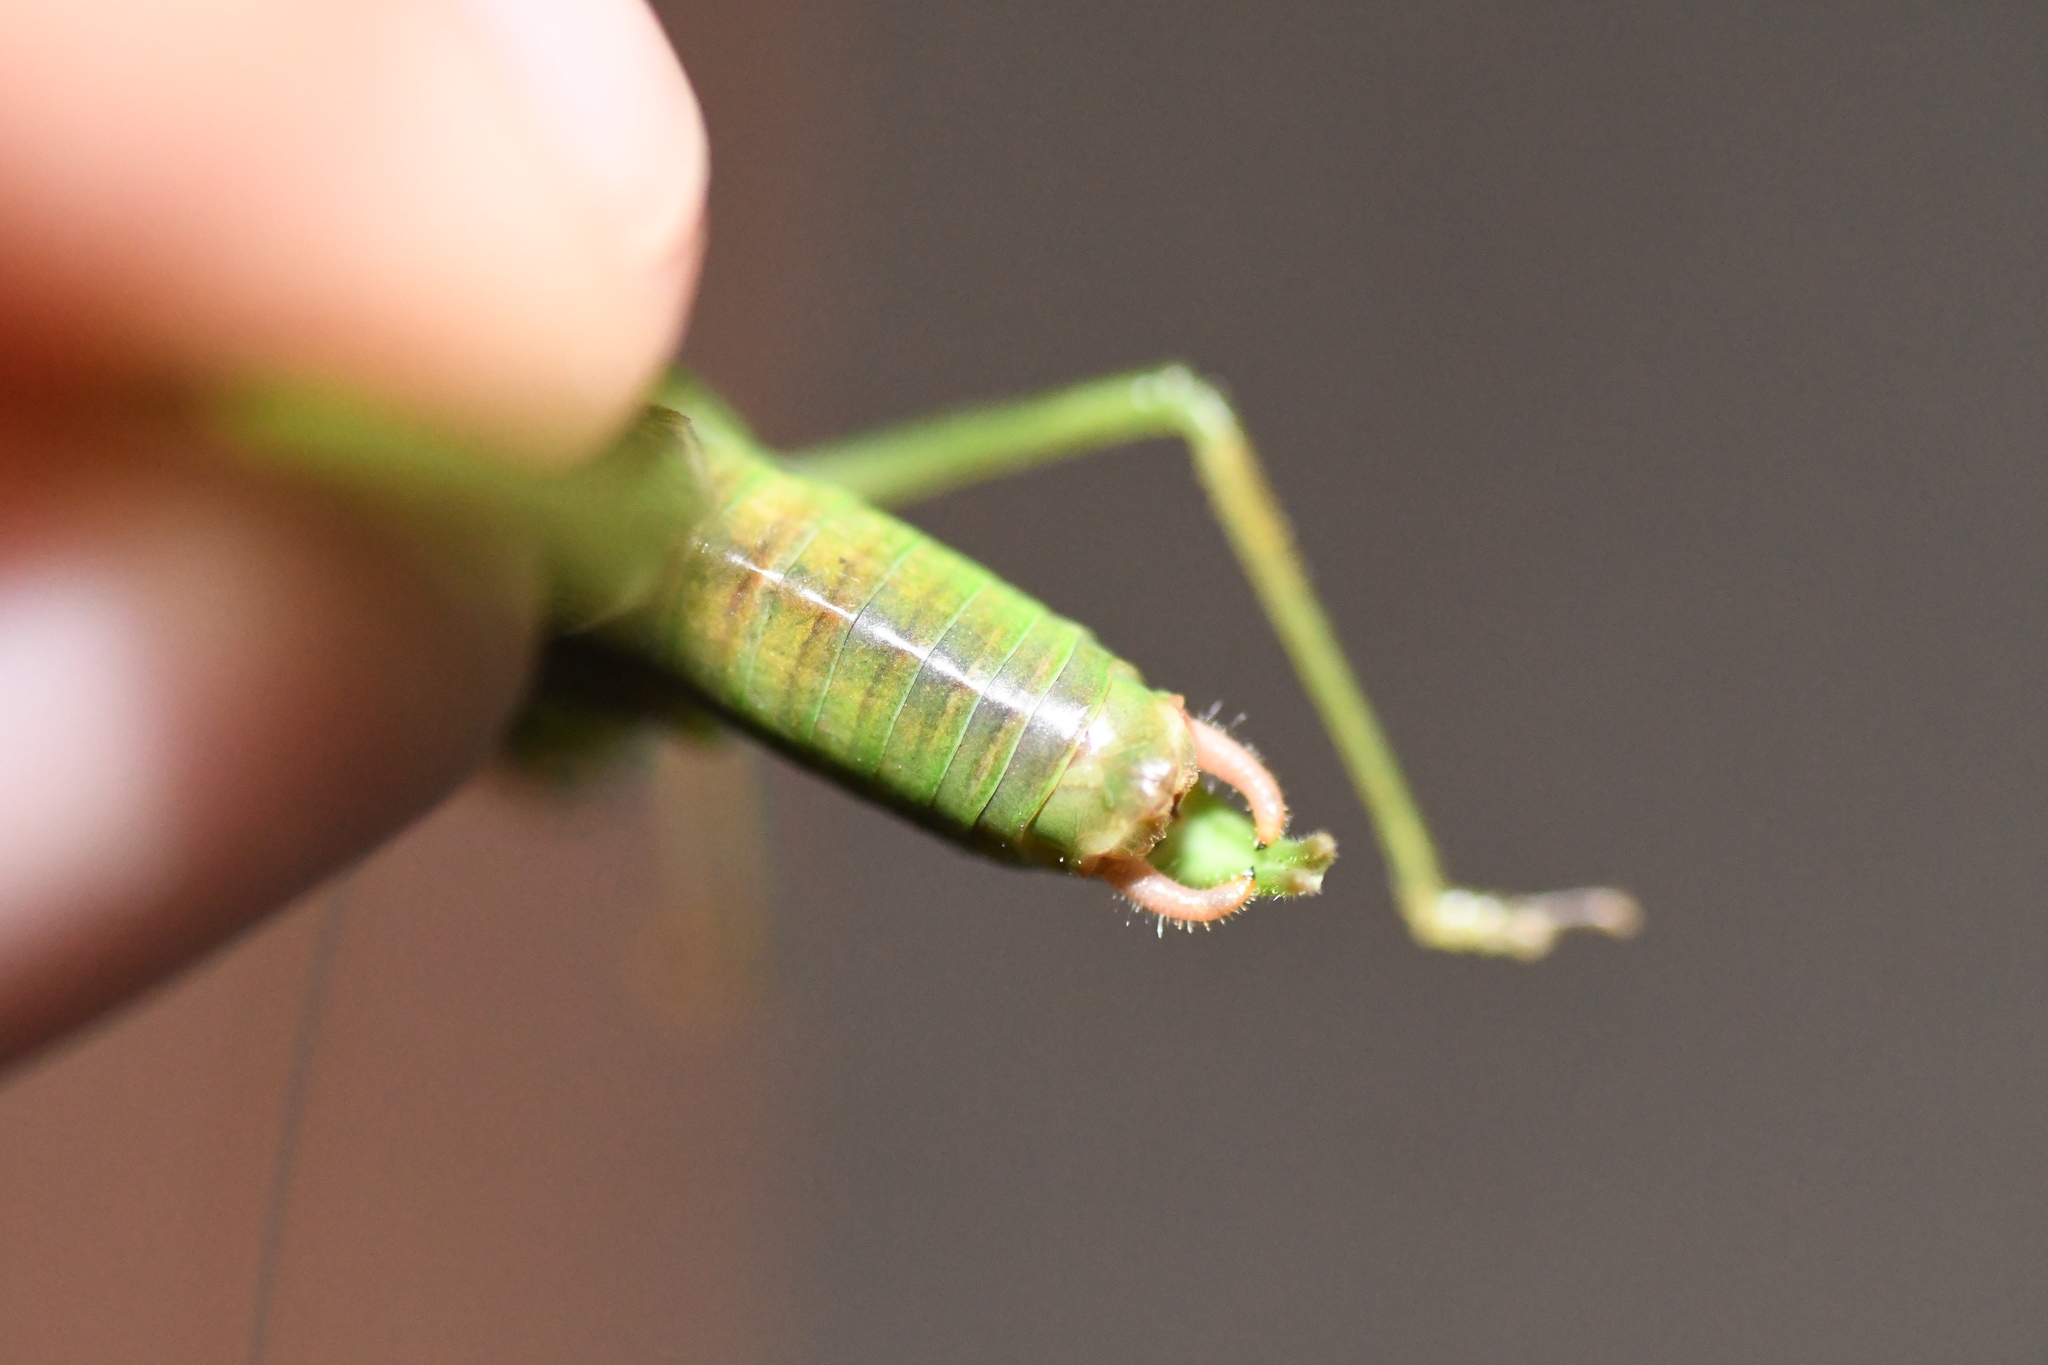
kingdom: Animalia
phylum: Arthropoda
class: Insecta
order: Orthoptera
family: Tettigoniidae
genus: Scudderia
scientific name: Scudderia septentrionalis
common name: Northern bush-katydid
